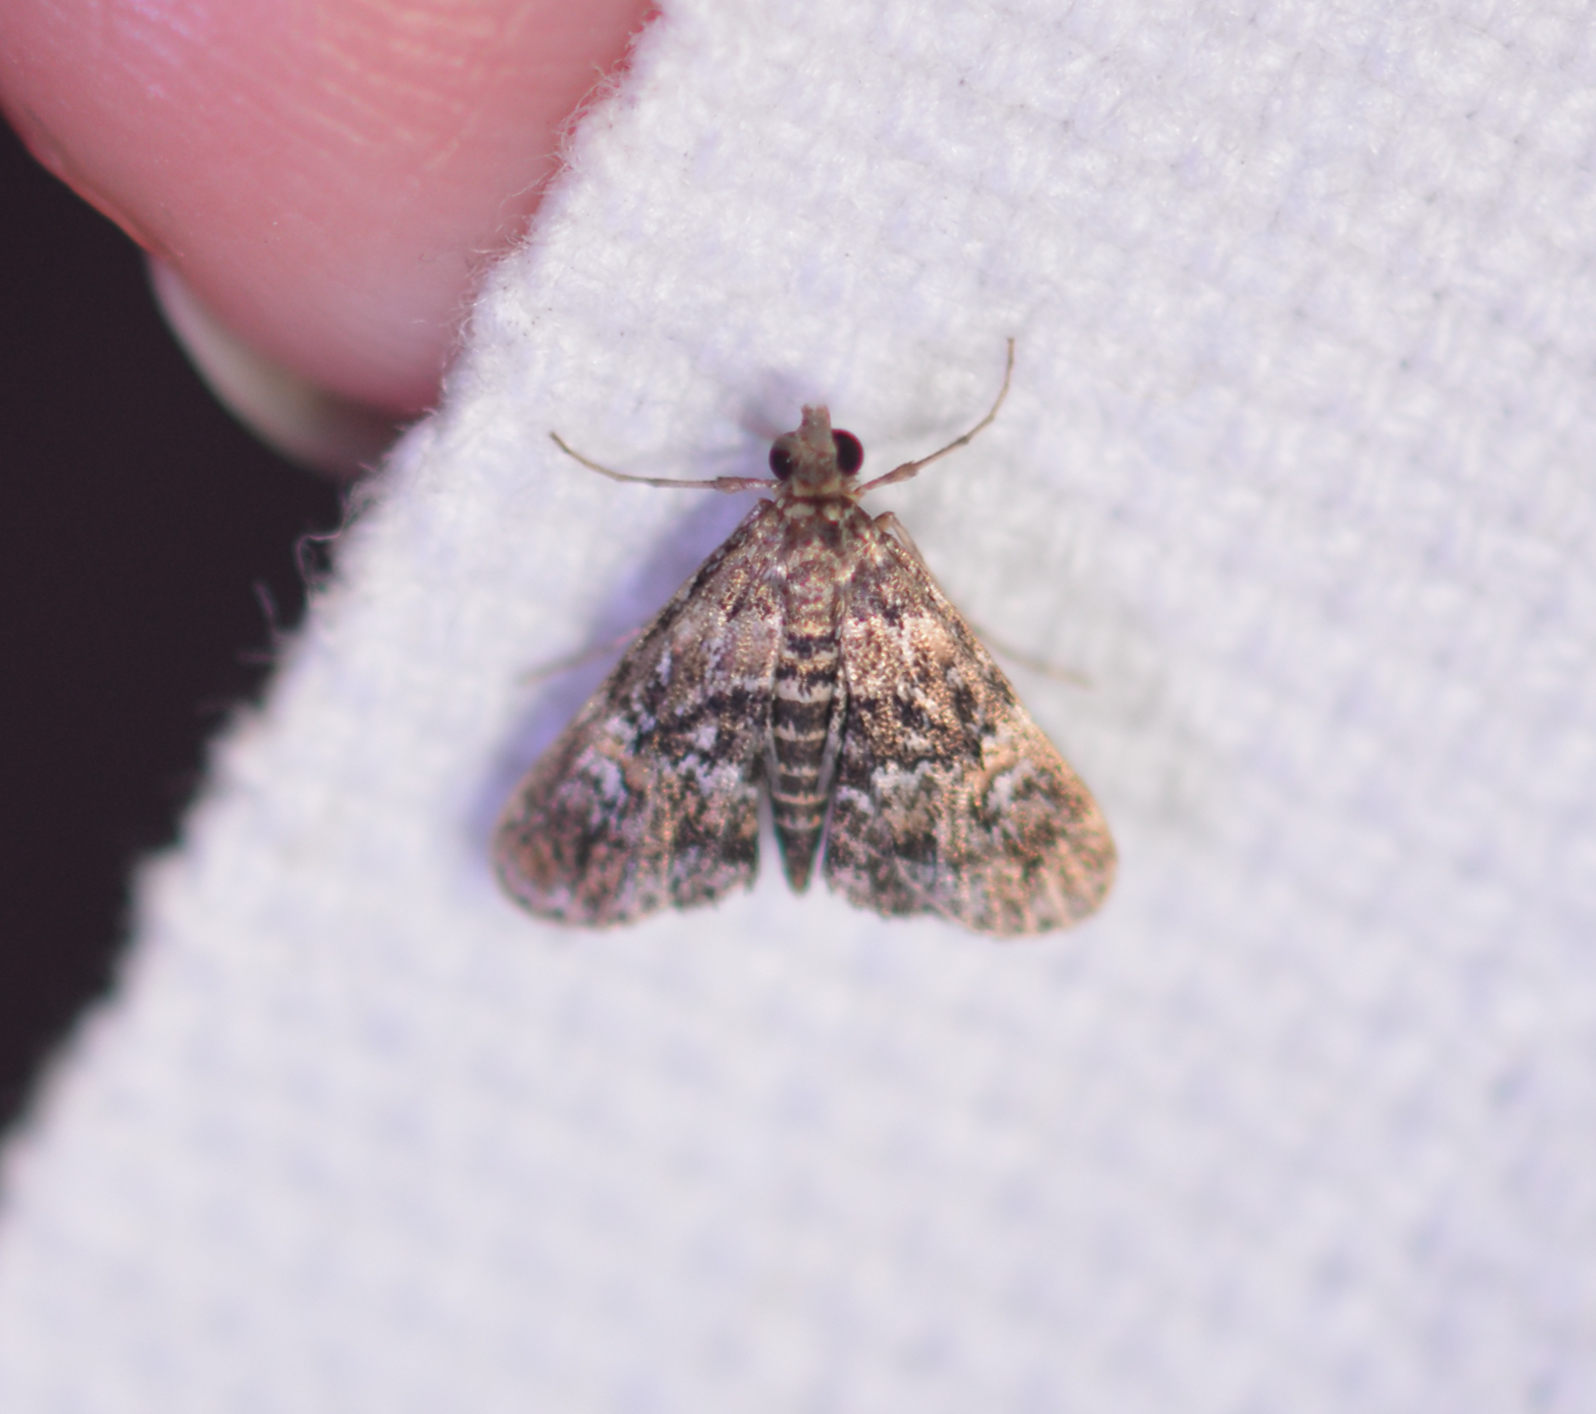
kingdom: Animalia
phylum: Arthropoda
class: Insecta
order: Lepidoptera
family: Crambidae
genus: Elophila
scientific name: Elophila obliteralis
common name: Waterlily leafcutter moth
